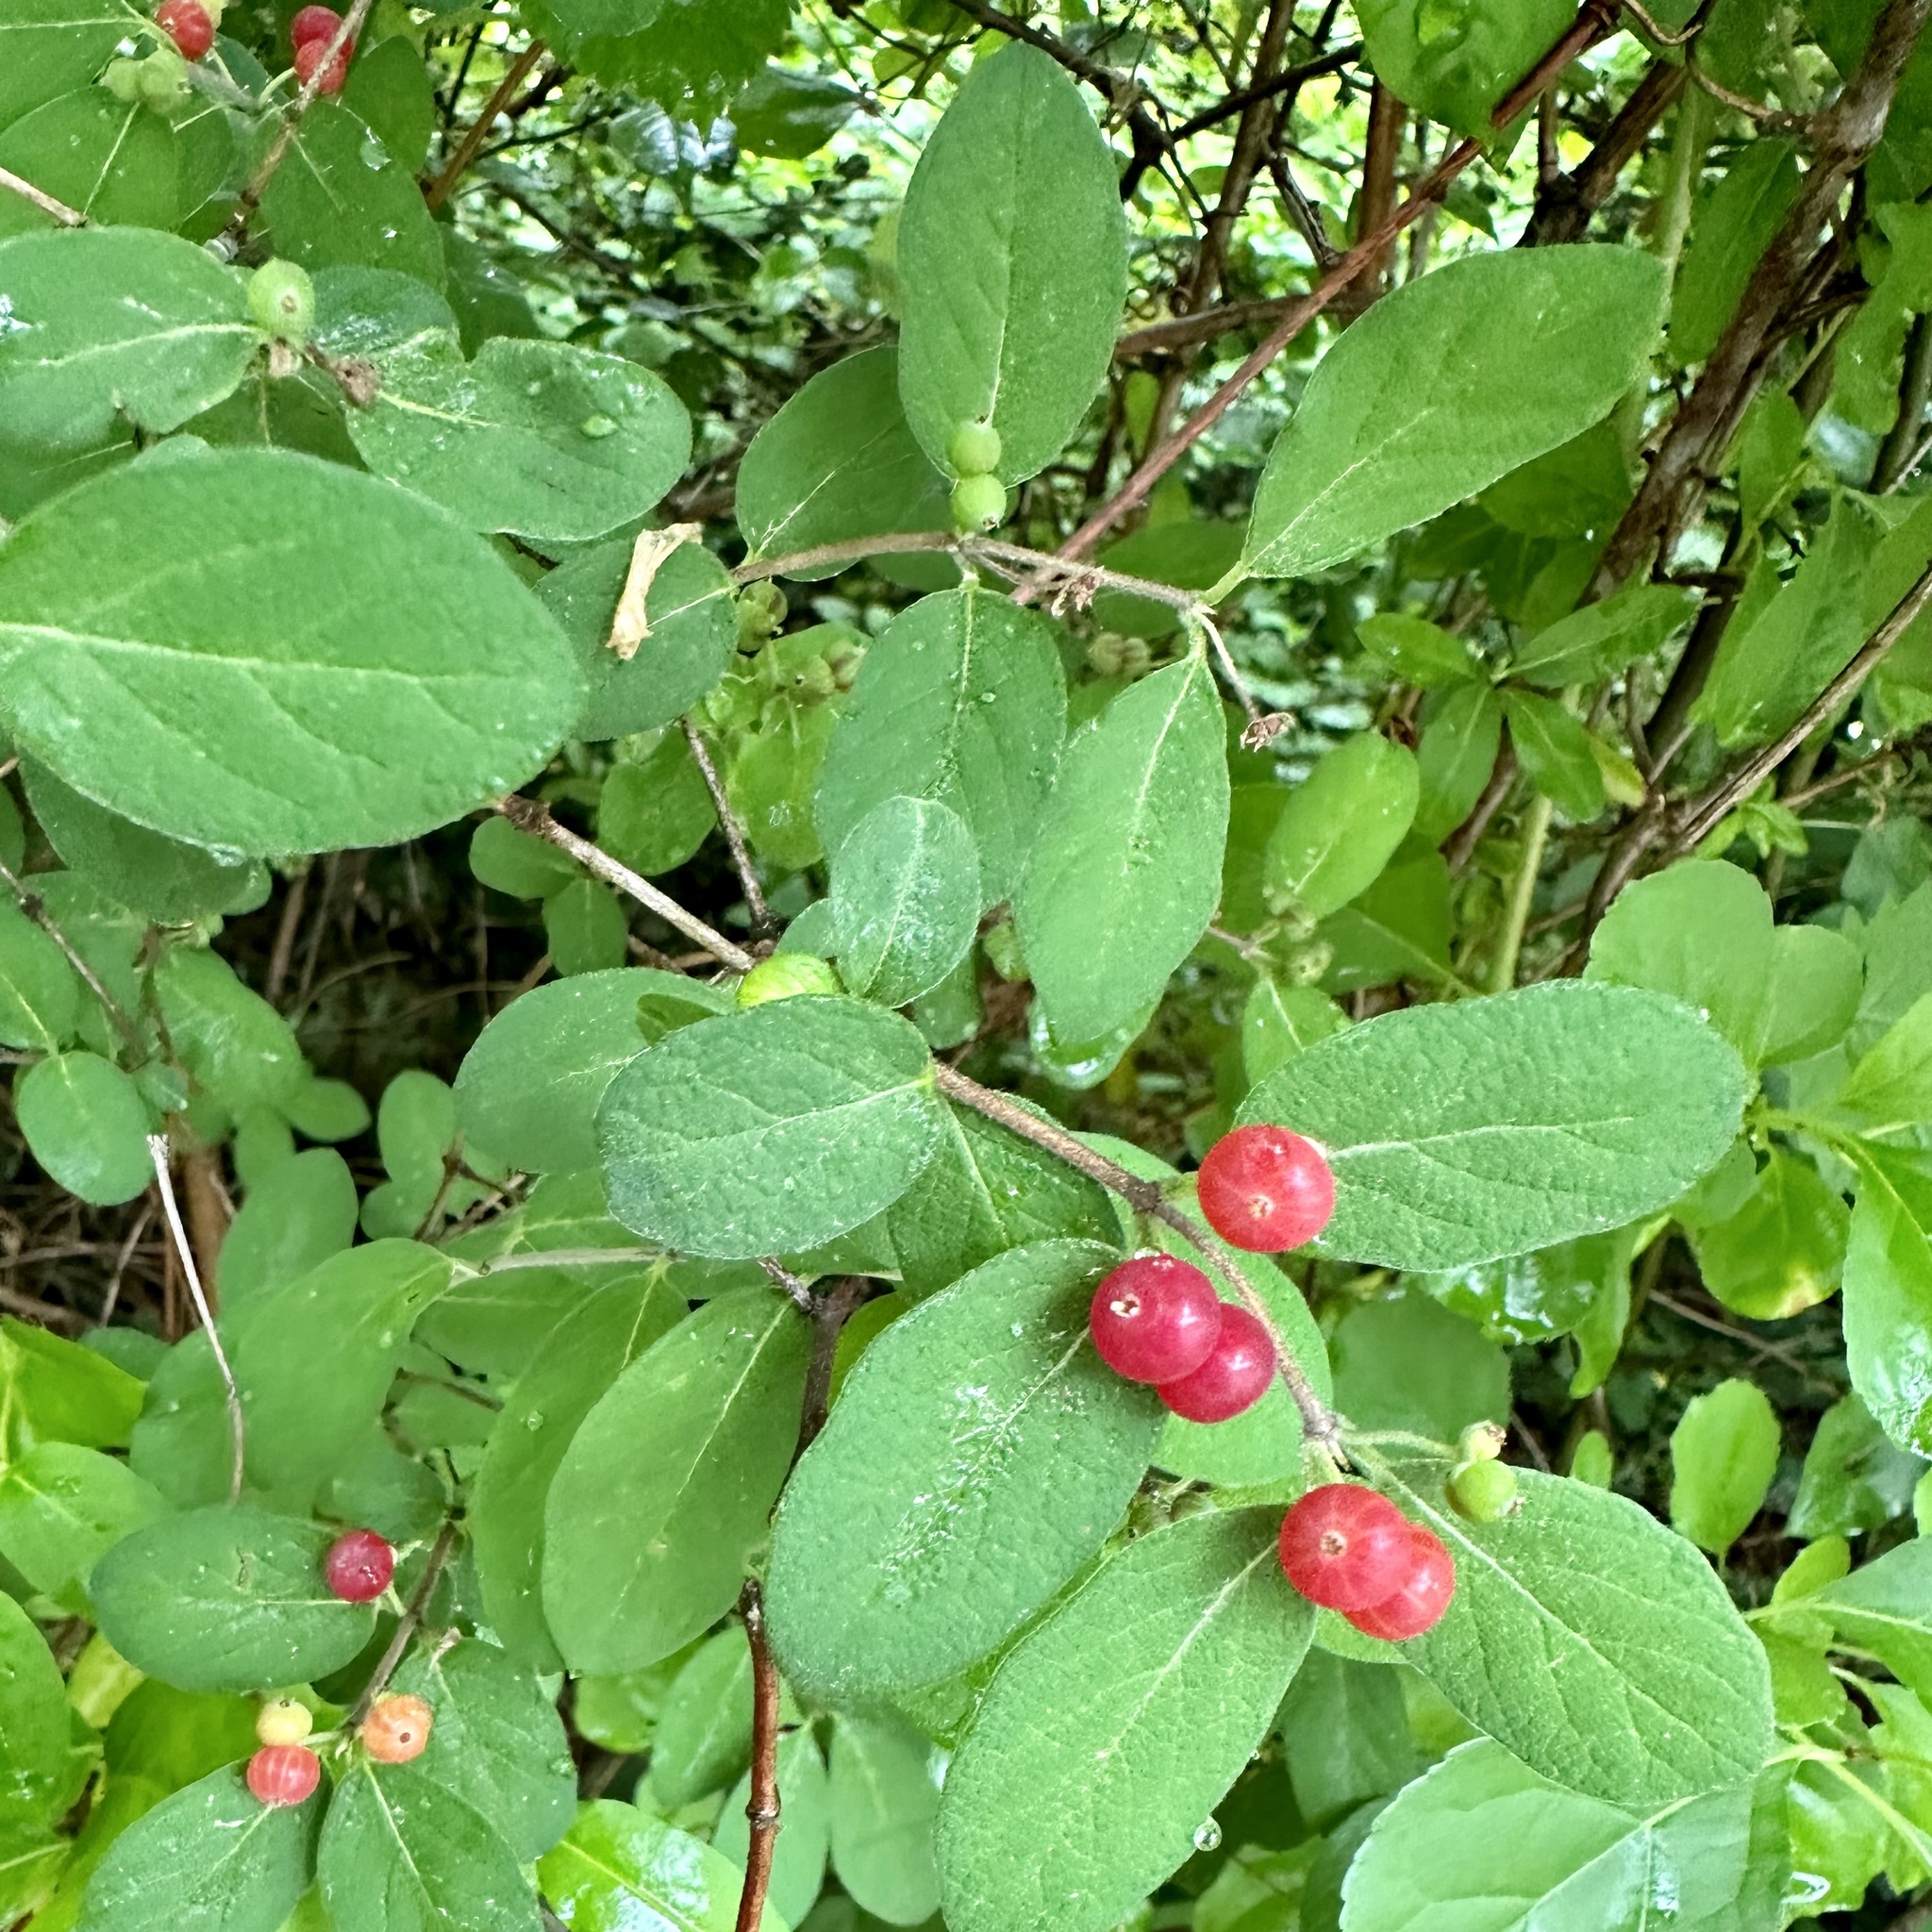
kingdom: Plantae
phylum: Tracheophyta
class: Magnoliopsida
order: Dipsacales
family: Caprifoliaceae
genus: Lonicera
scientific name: Lonicera morrowii
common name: Morrow's honeysuckle
